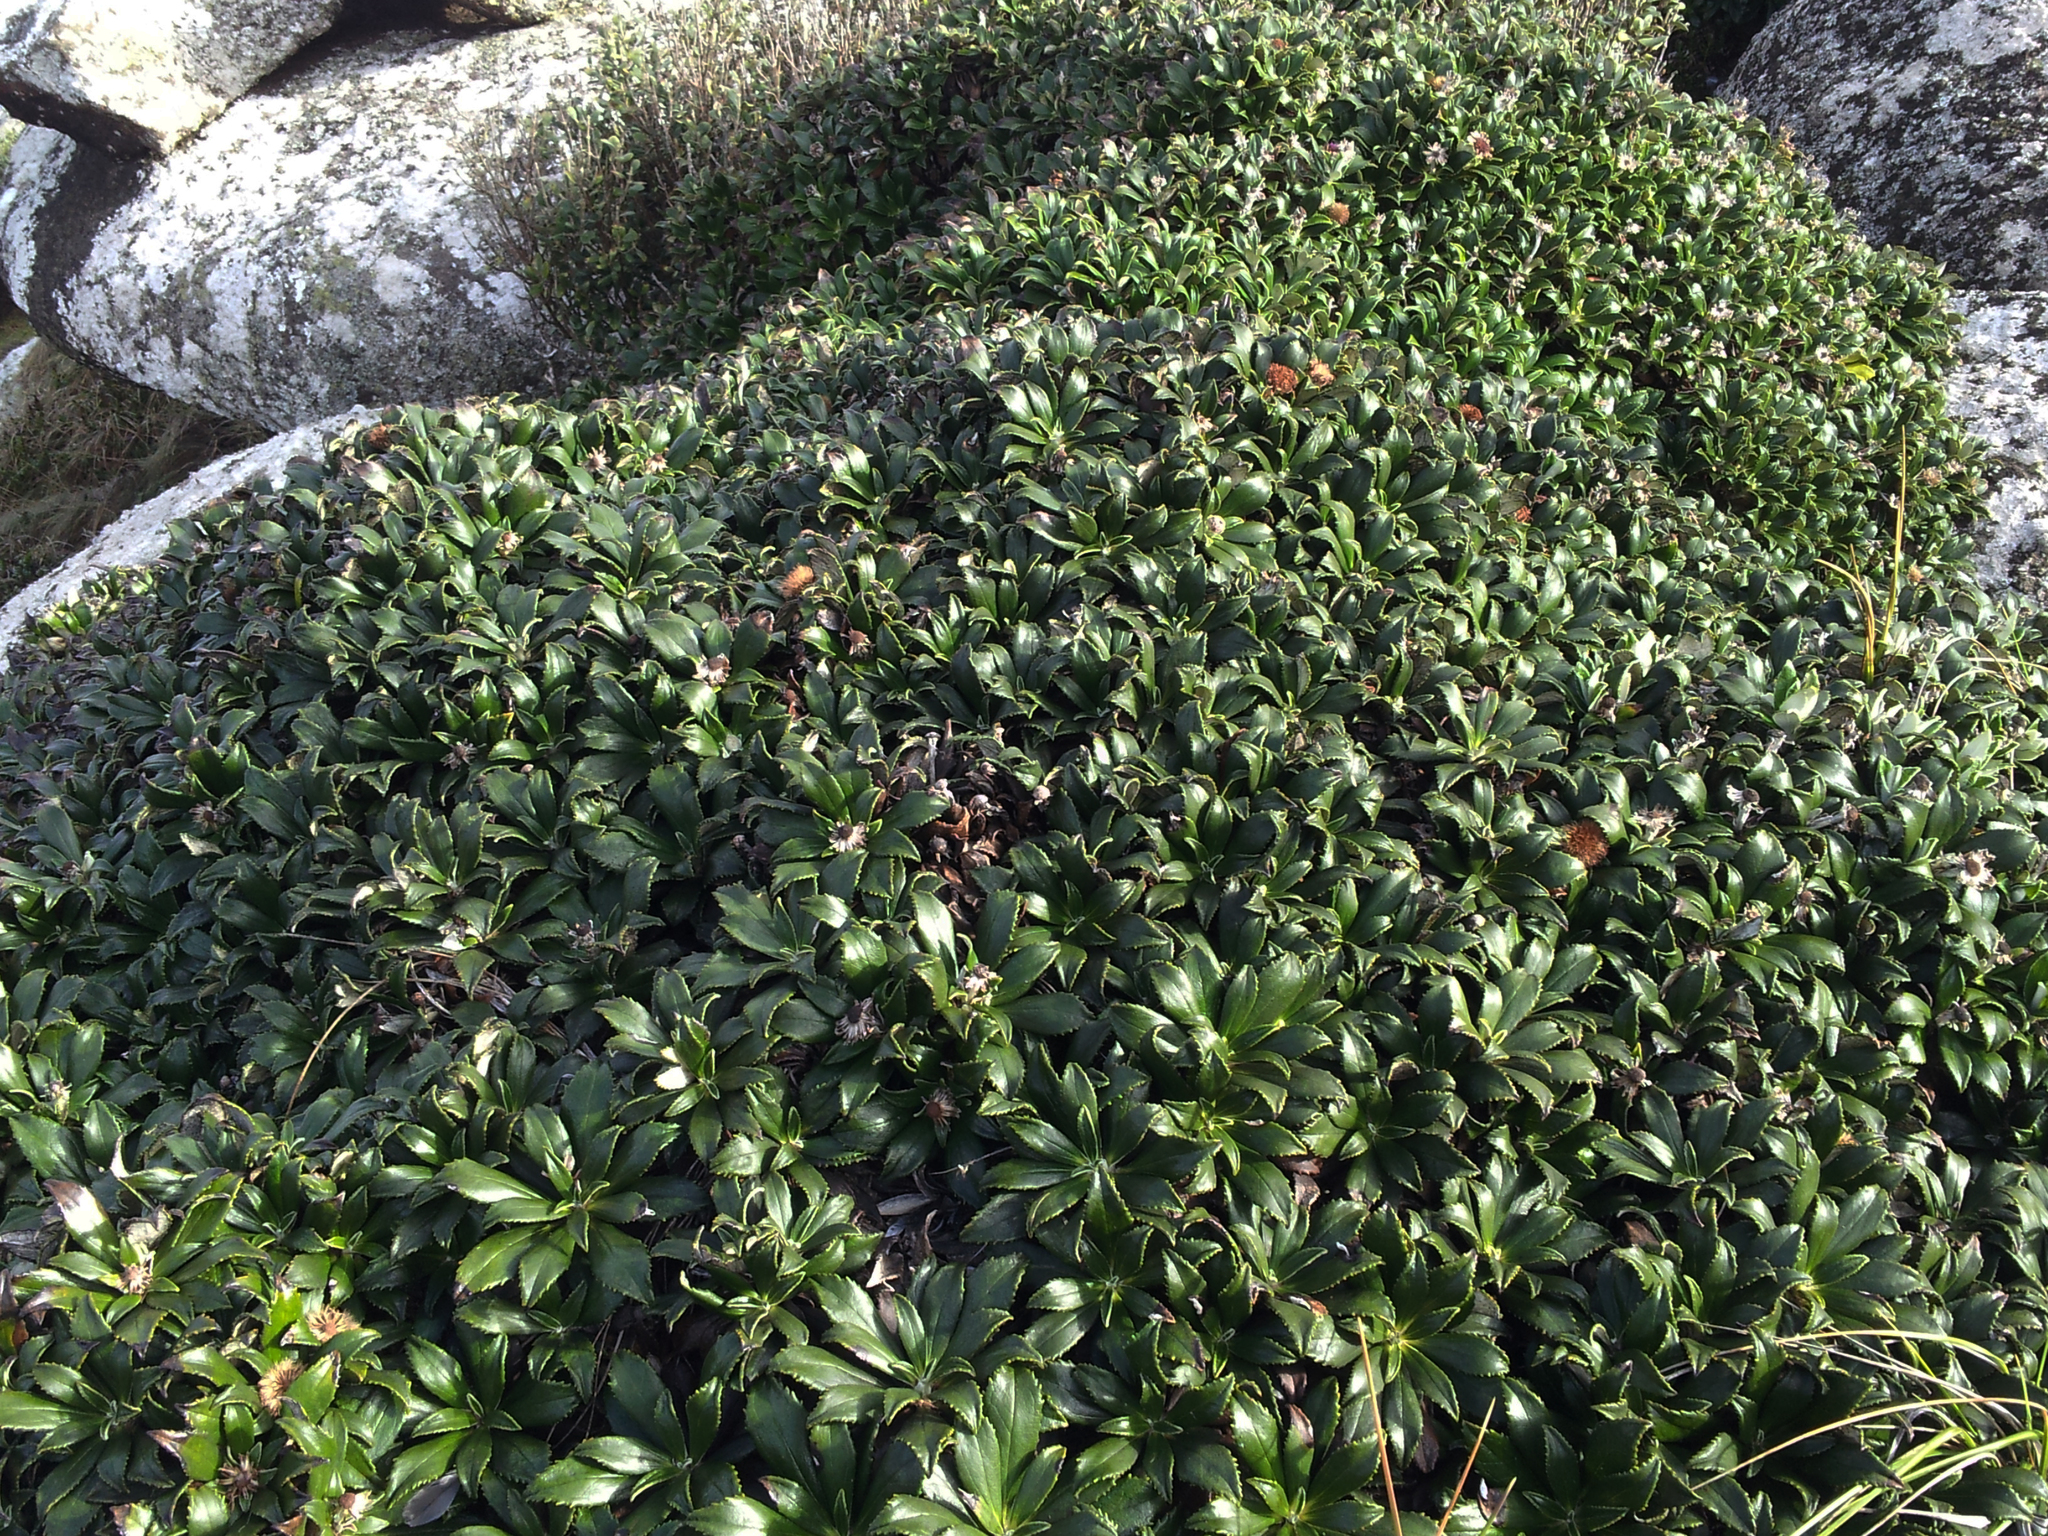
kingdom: Plantae
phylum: Tracheophyta
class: Magnoliopsida
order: Asterales
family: Asteraceae
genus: Macrolearia
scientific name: Macrolearia chathamica
